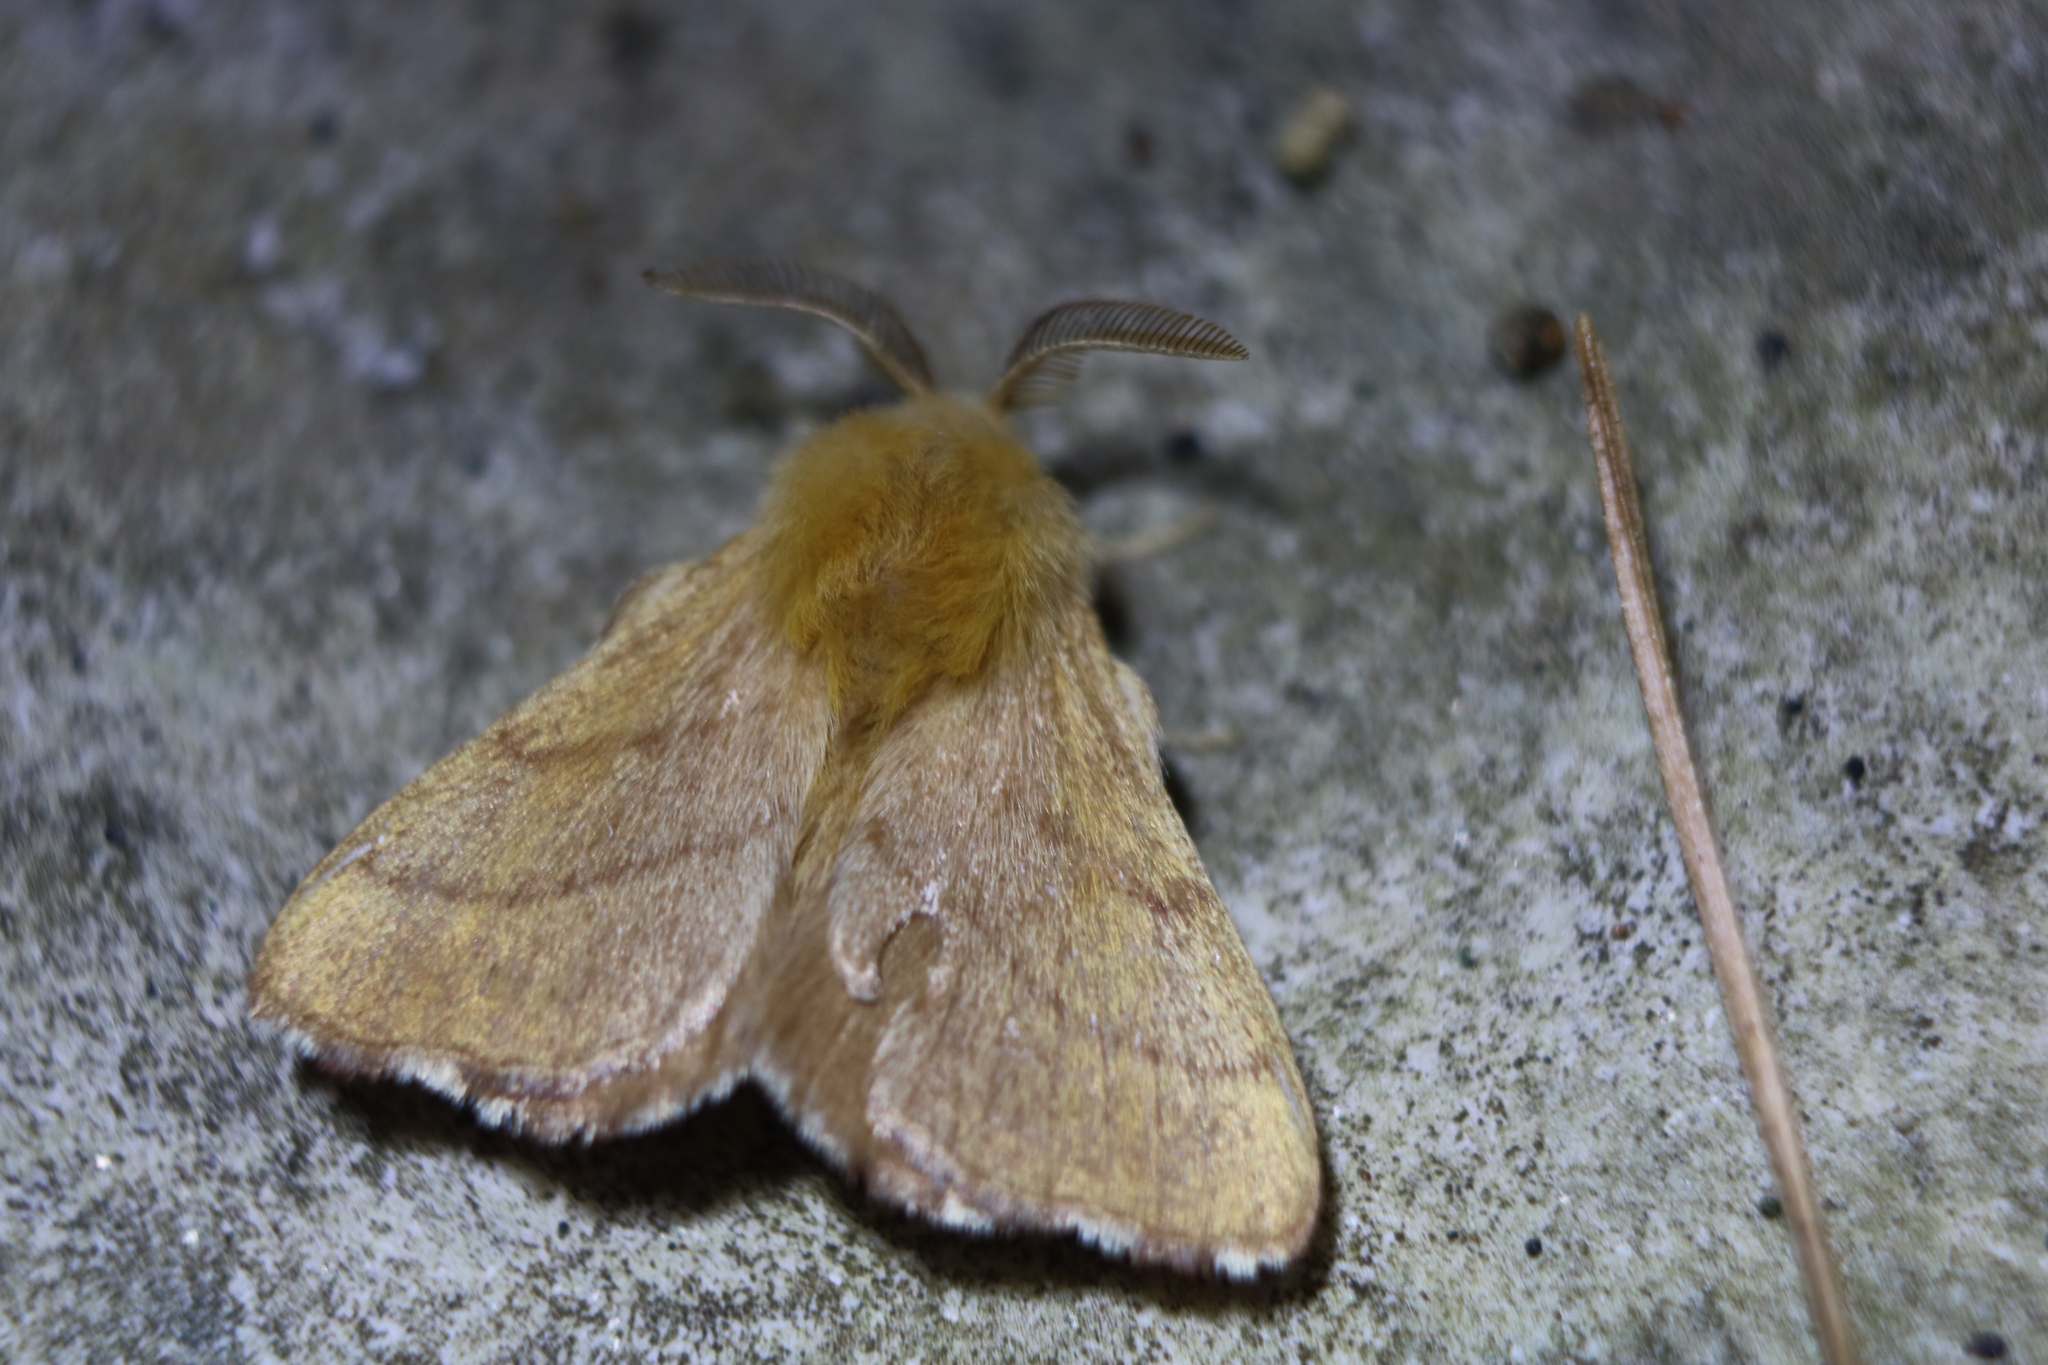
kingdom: Animalia
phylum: Arthropoda
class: Insecta
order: Lepidoptera
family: Lasiocampidae
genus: Malacosoma
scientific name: Malacosoma disstria
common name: Forest tent caterpillar
